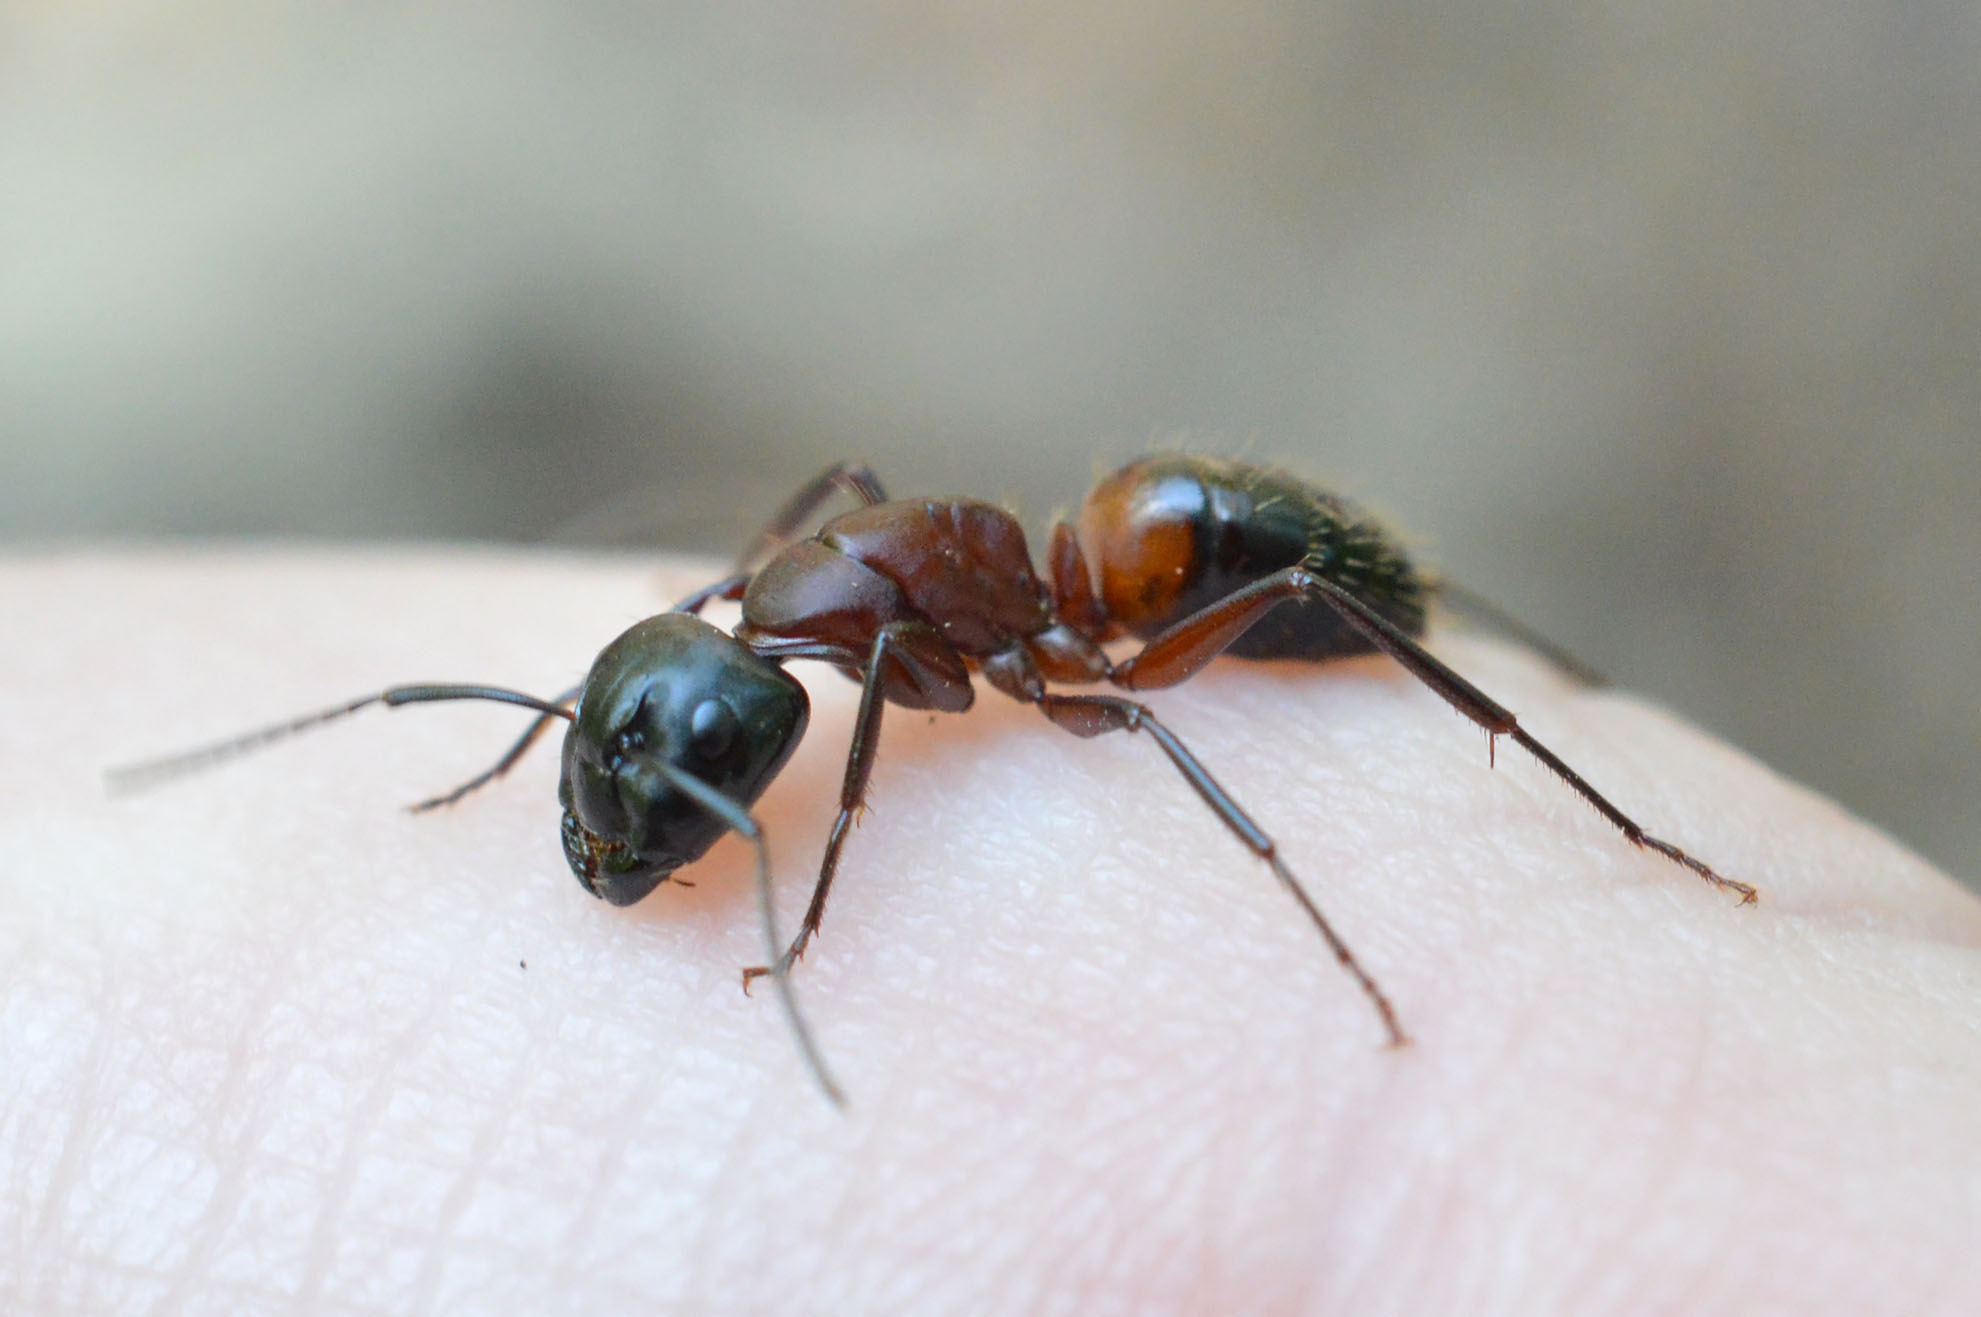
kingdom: Animalia
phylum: Arthropoda
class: Insecta
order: Hymenoptera
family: Formicidae
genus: Camponotus
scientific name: Camponotus ligniperdus
